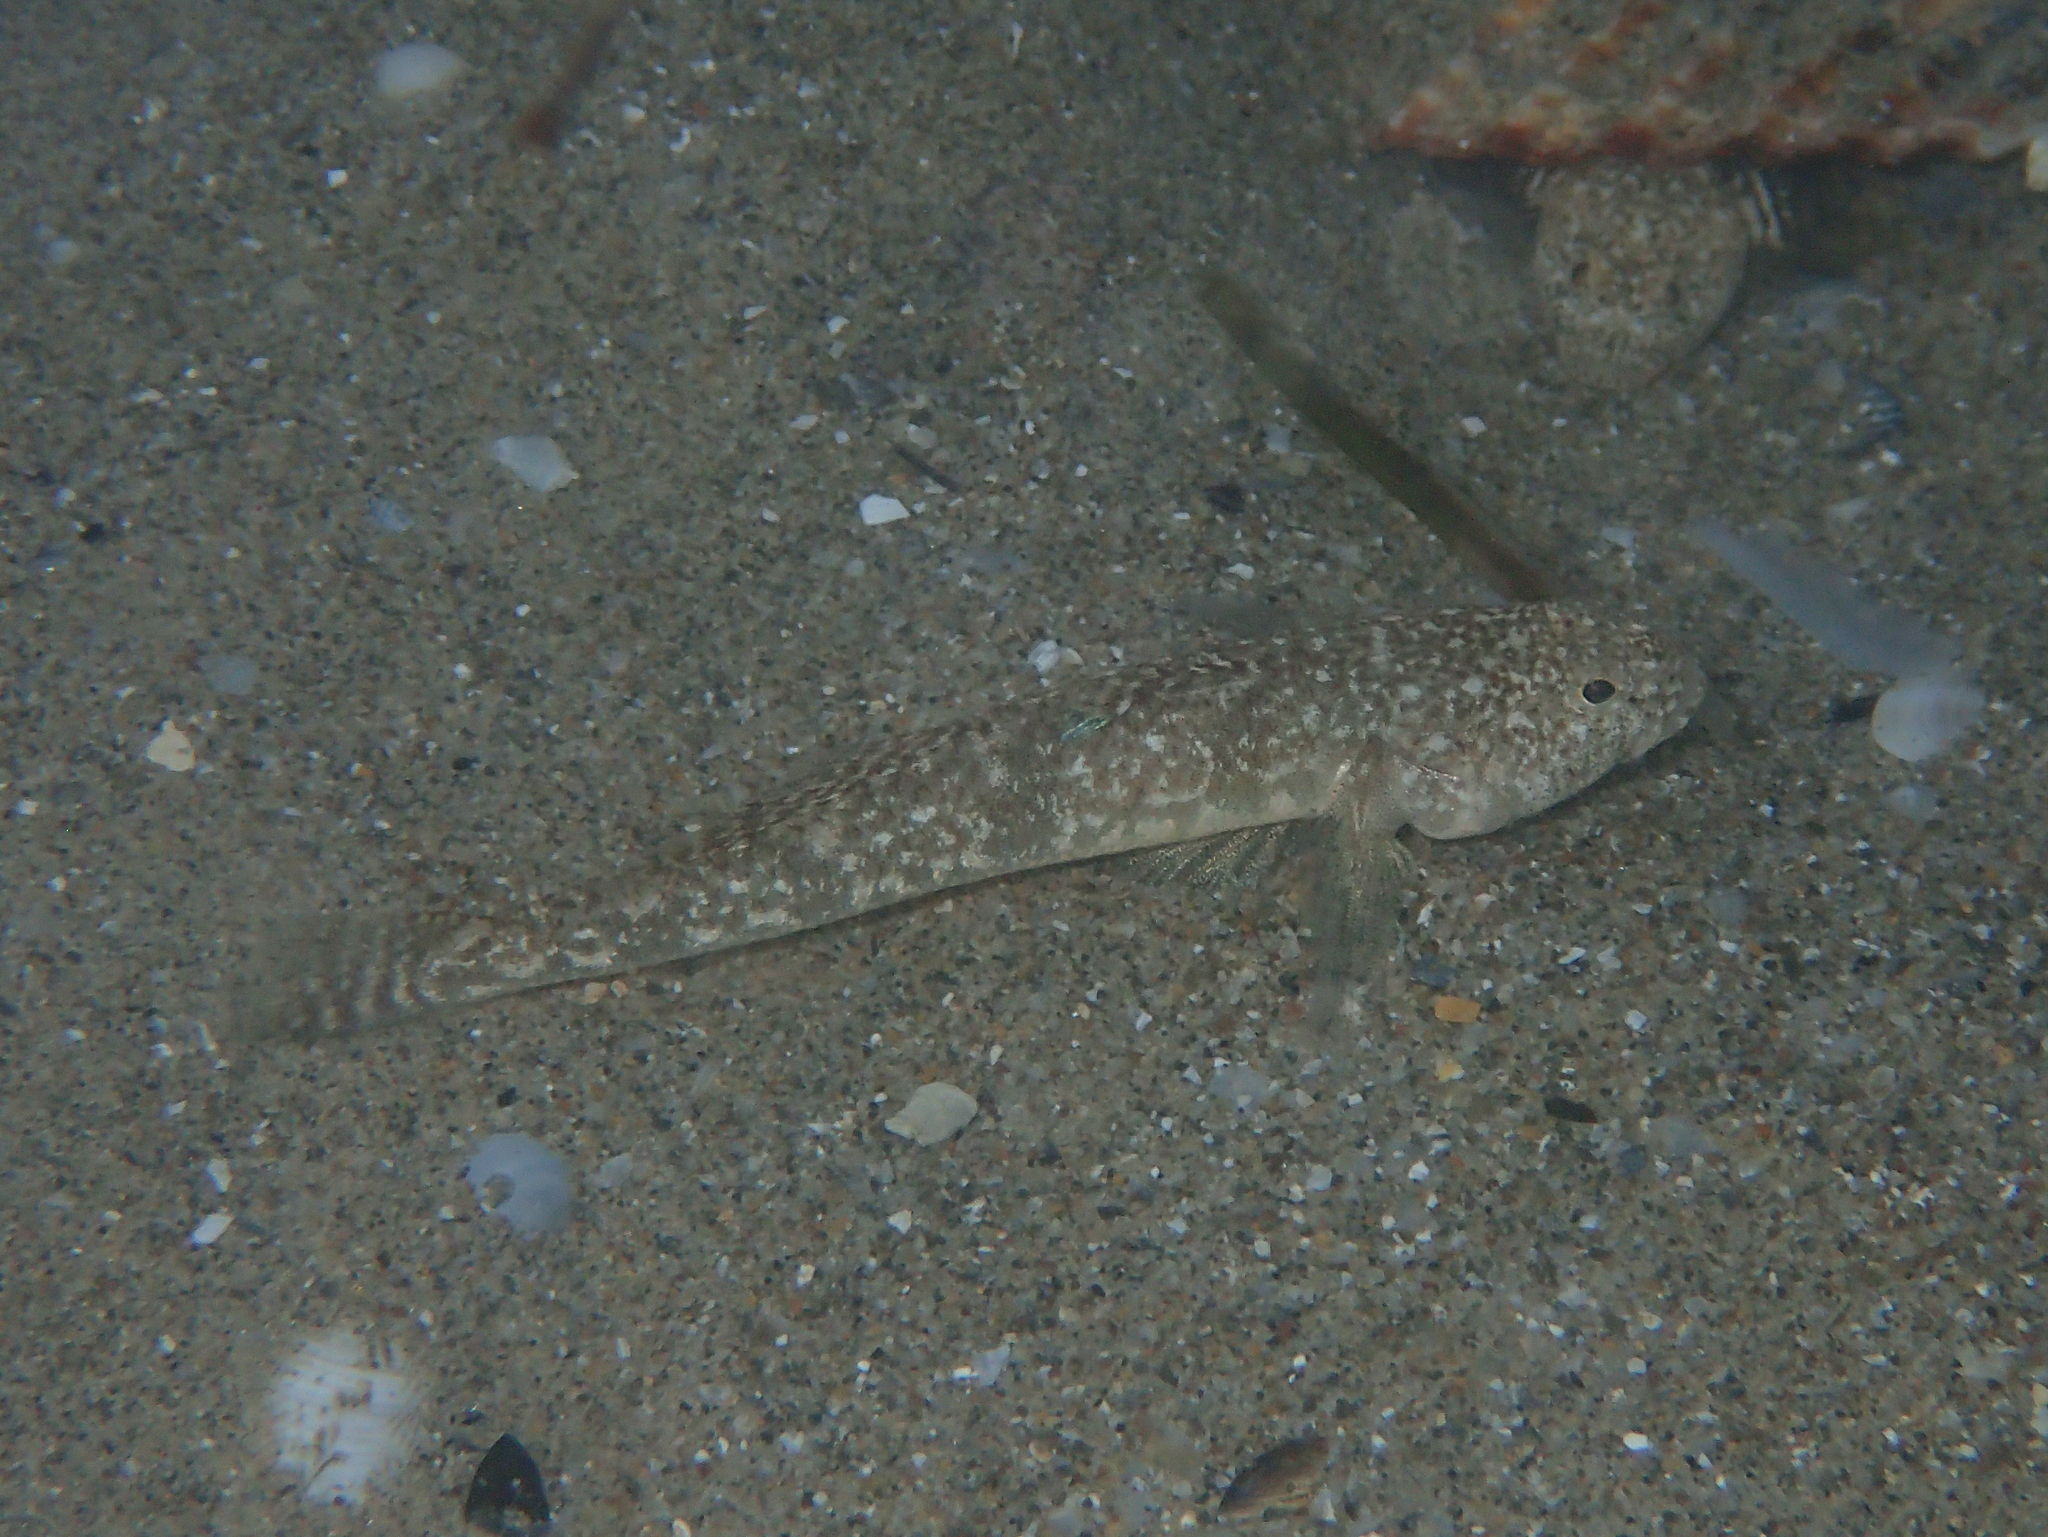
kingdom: Animalia
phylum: Chordata
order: Perciformes
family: Gobiidae
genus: Pomatoschistus
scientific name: Pomatoschistus marmoratus
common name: Marbled goby
